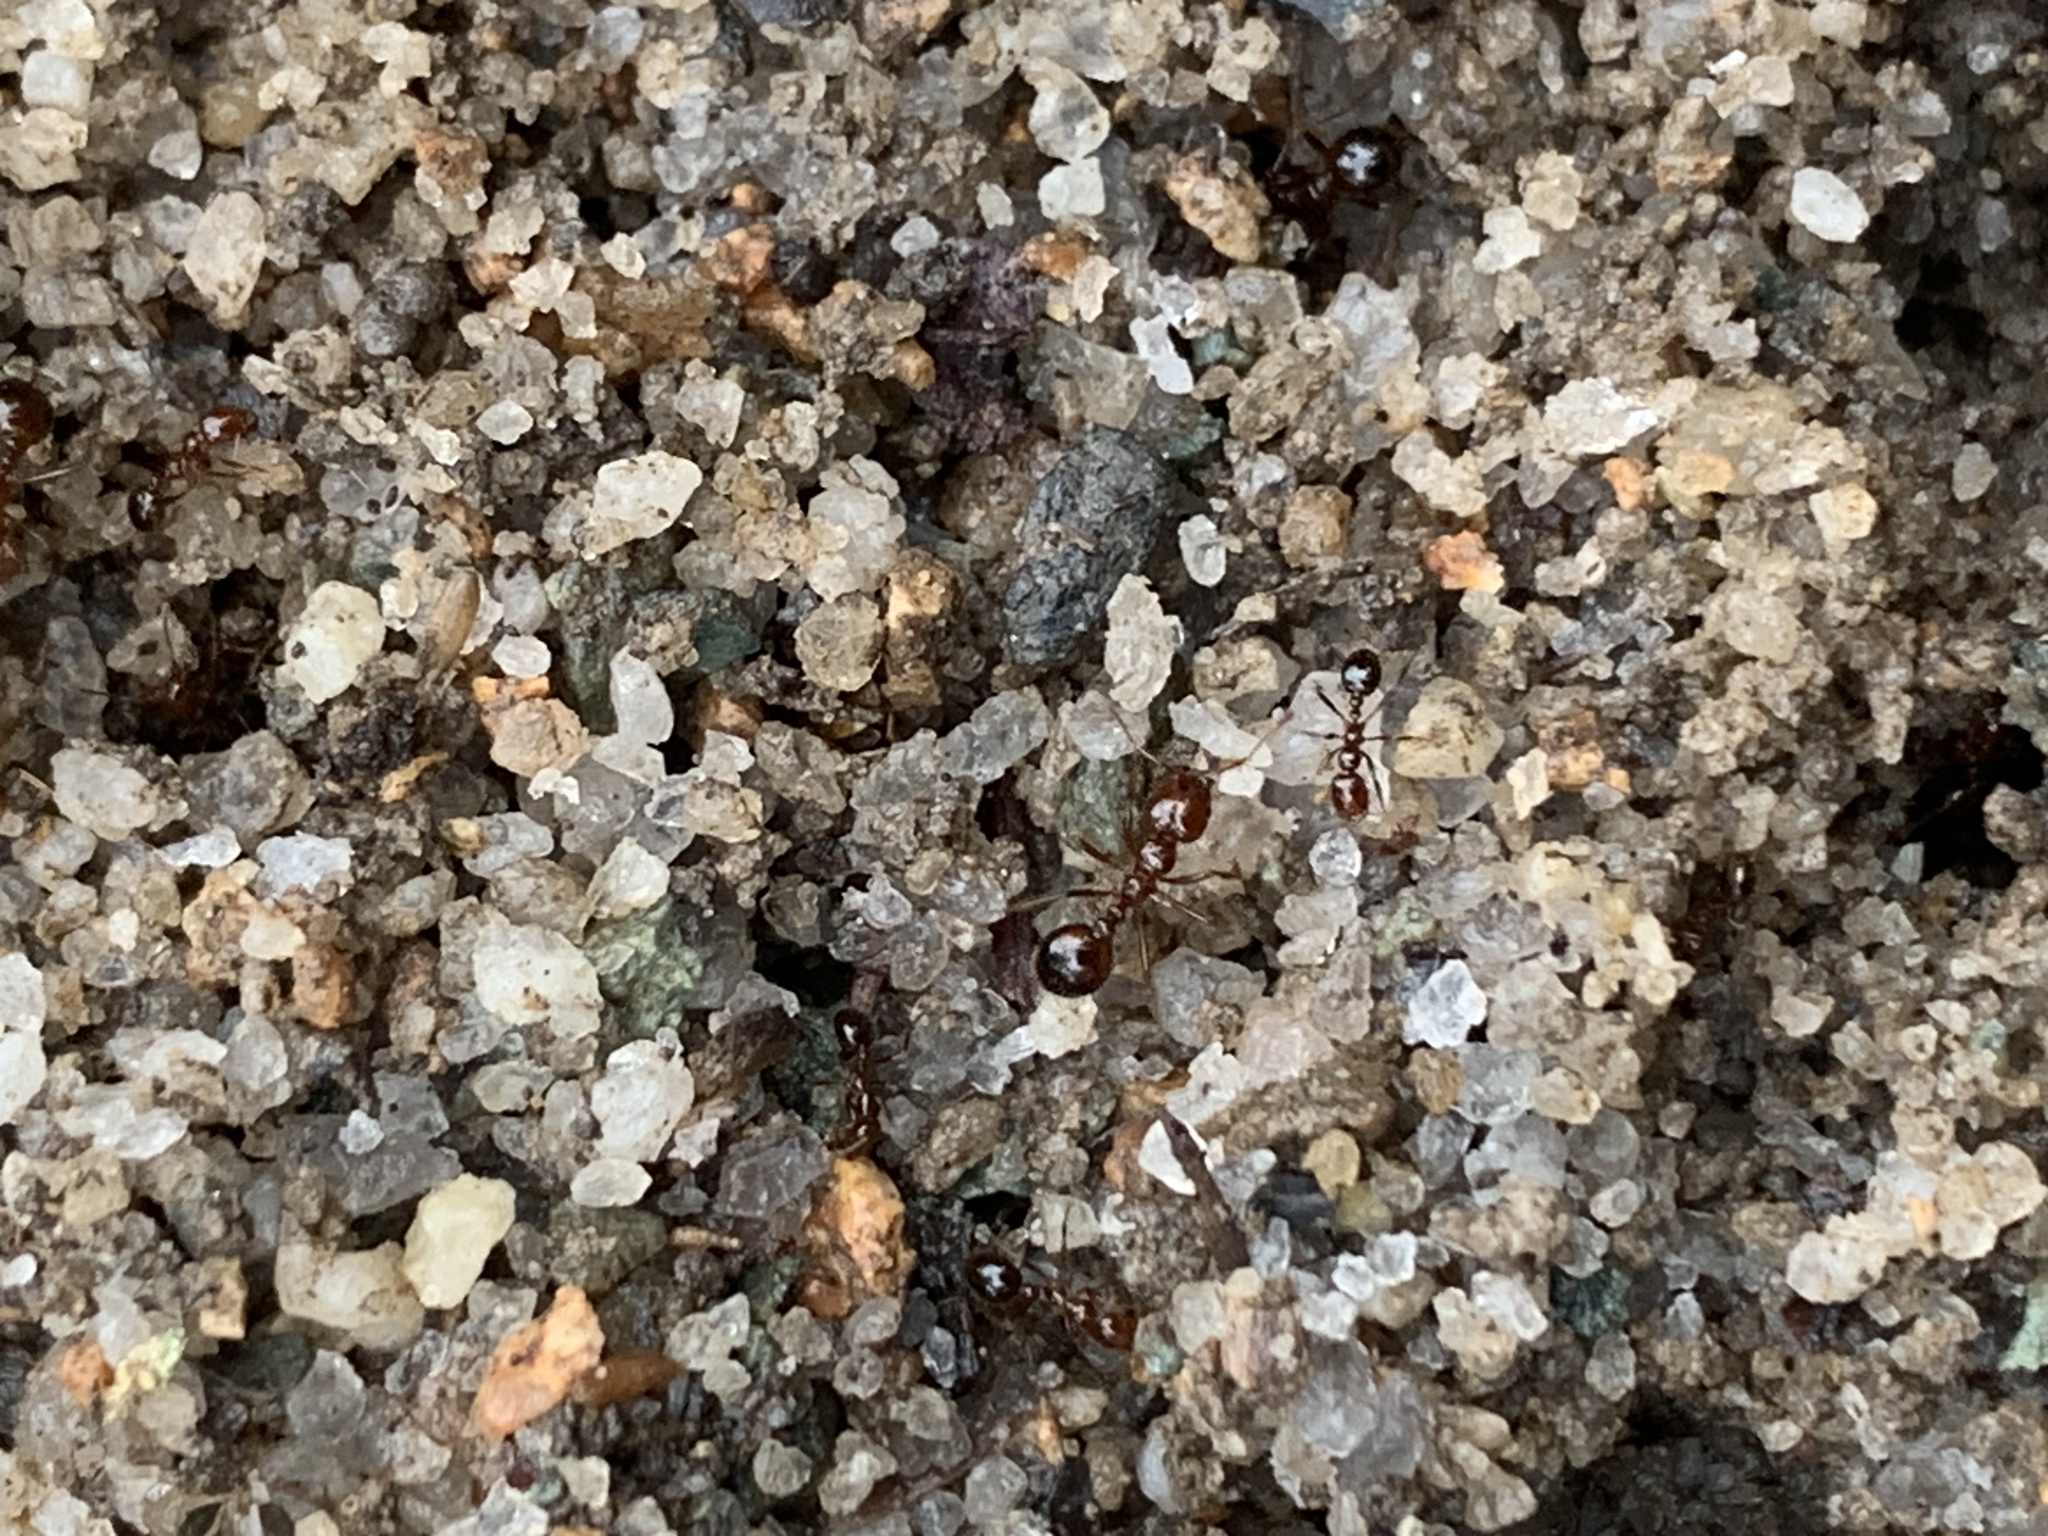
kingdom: Animalia
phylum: Arthropoda
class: Insecta
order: Hymenoptera
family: Formicidae
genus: Solenopsis
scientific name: Solenopsis invicta
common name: Red imported fire ant
